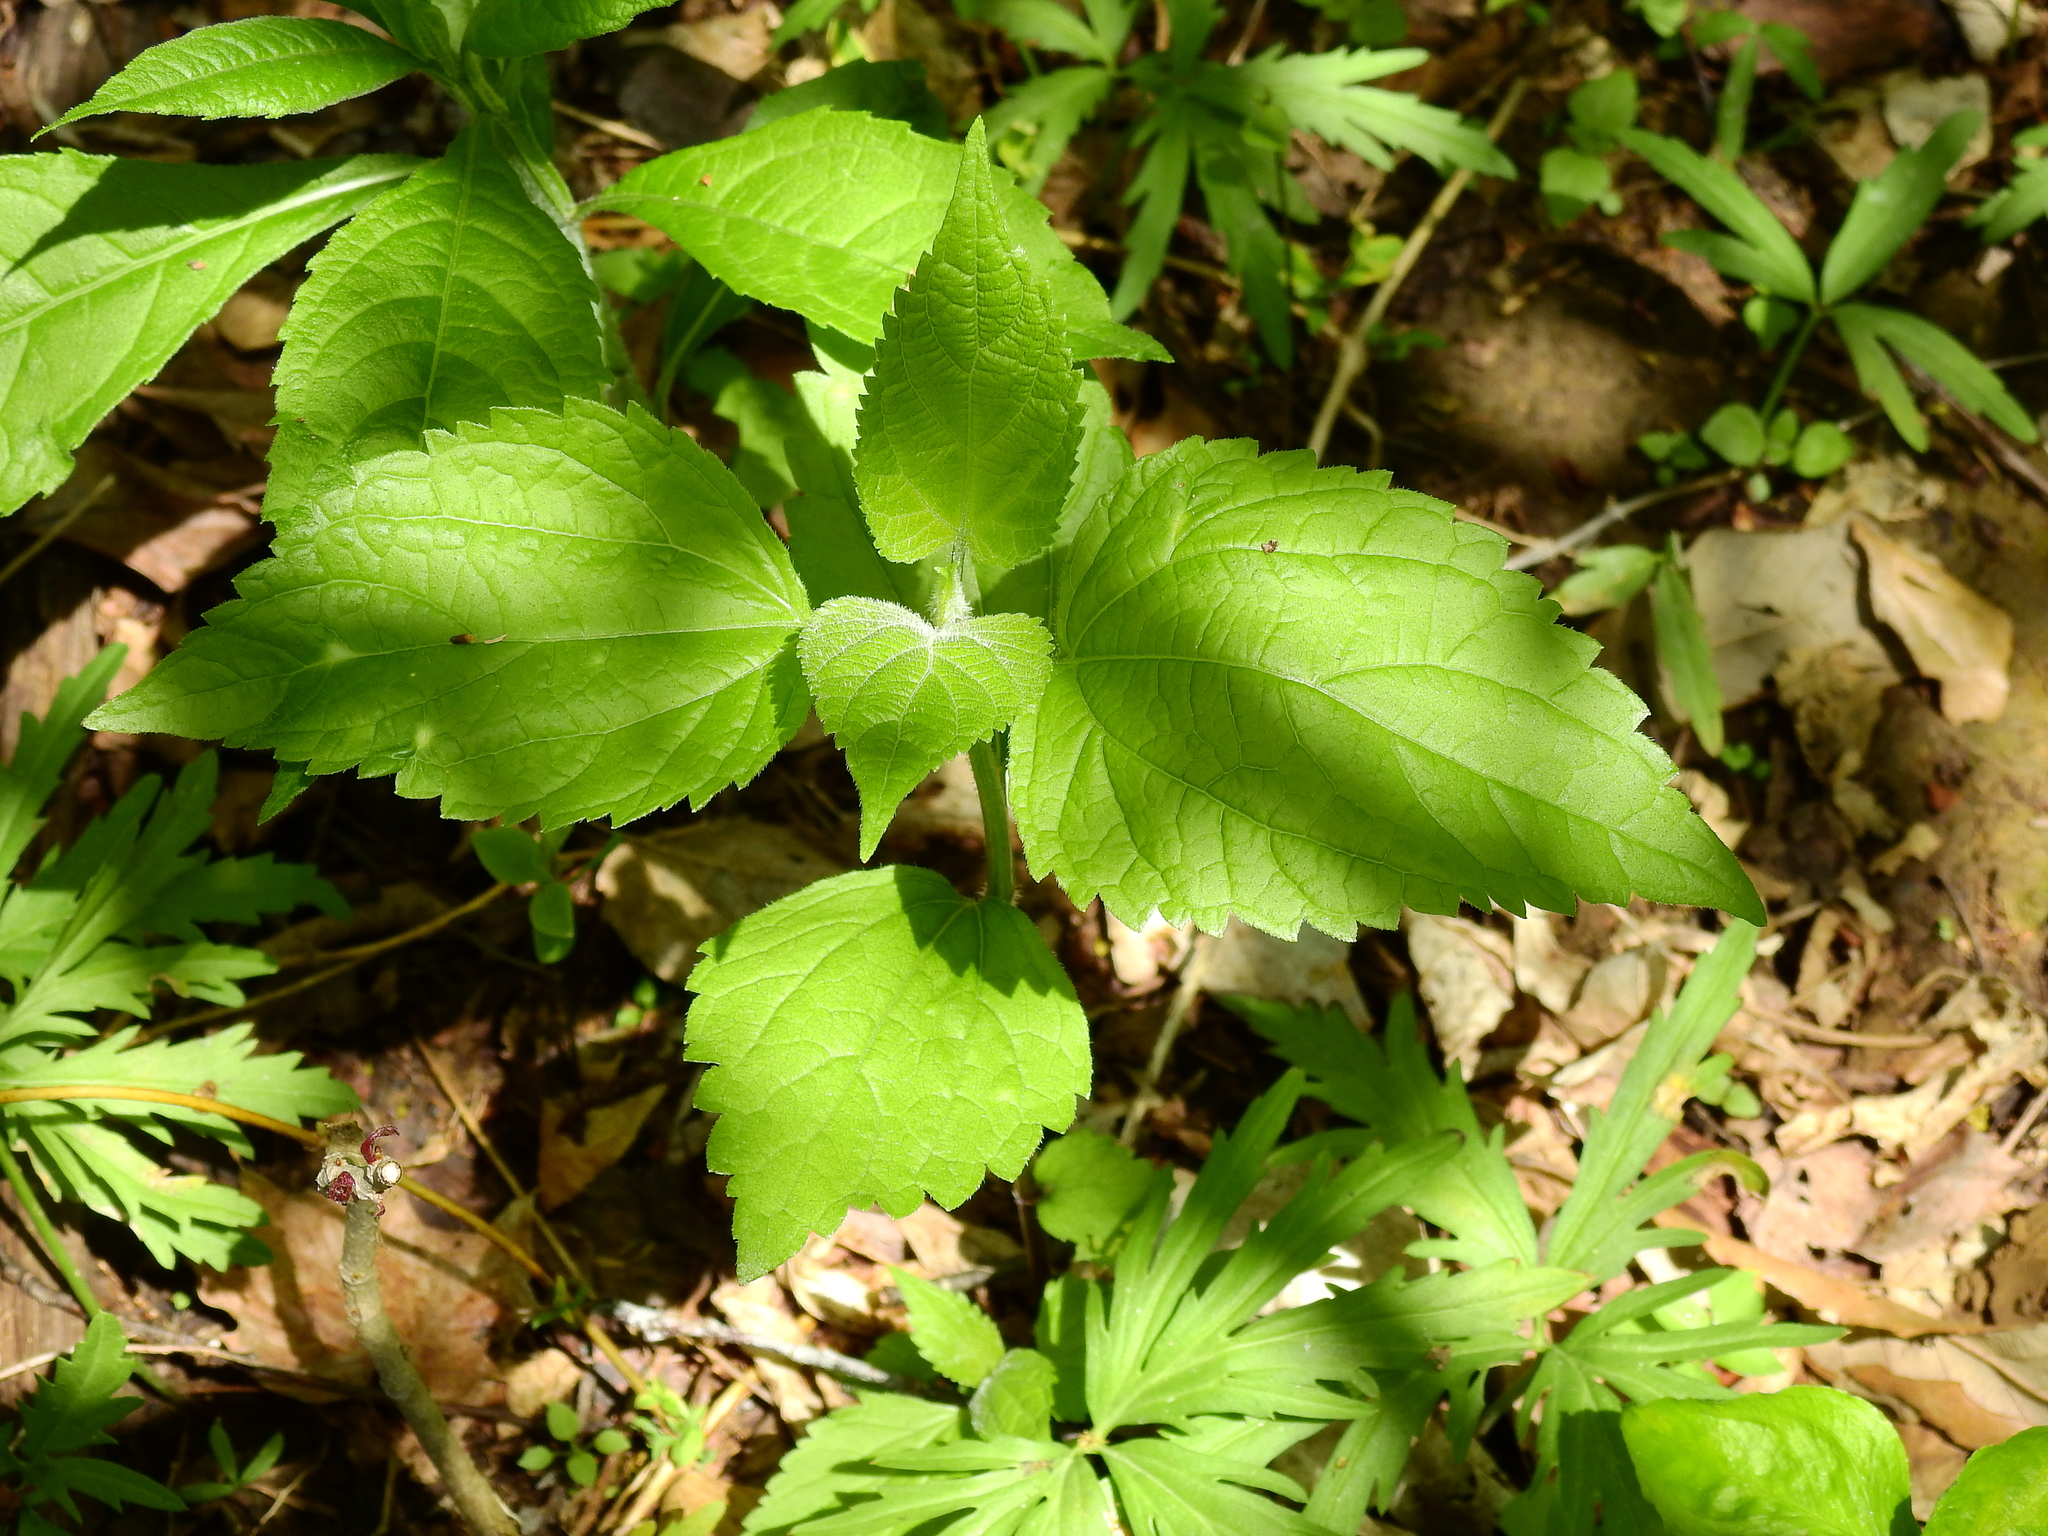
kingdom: Plantae
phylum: Tracheophyta
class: Magnoliopsida
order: Asterales
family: Asteraceae
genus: Ageratina
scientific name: Ageratina altissima
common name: White snakeroot
